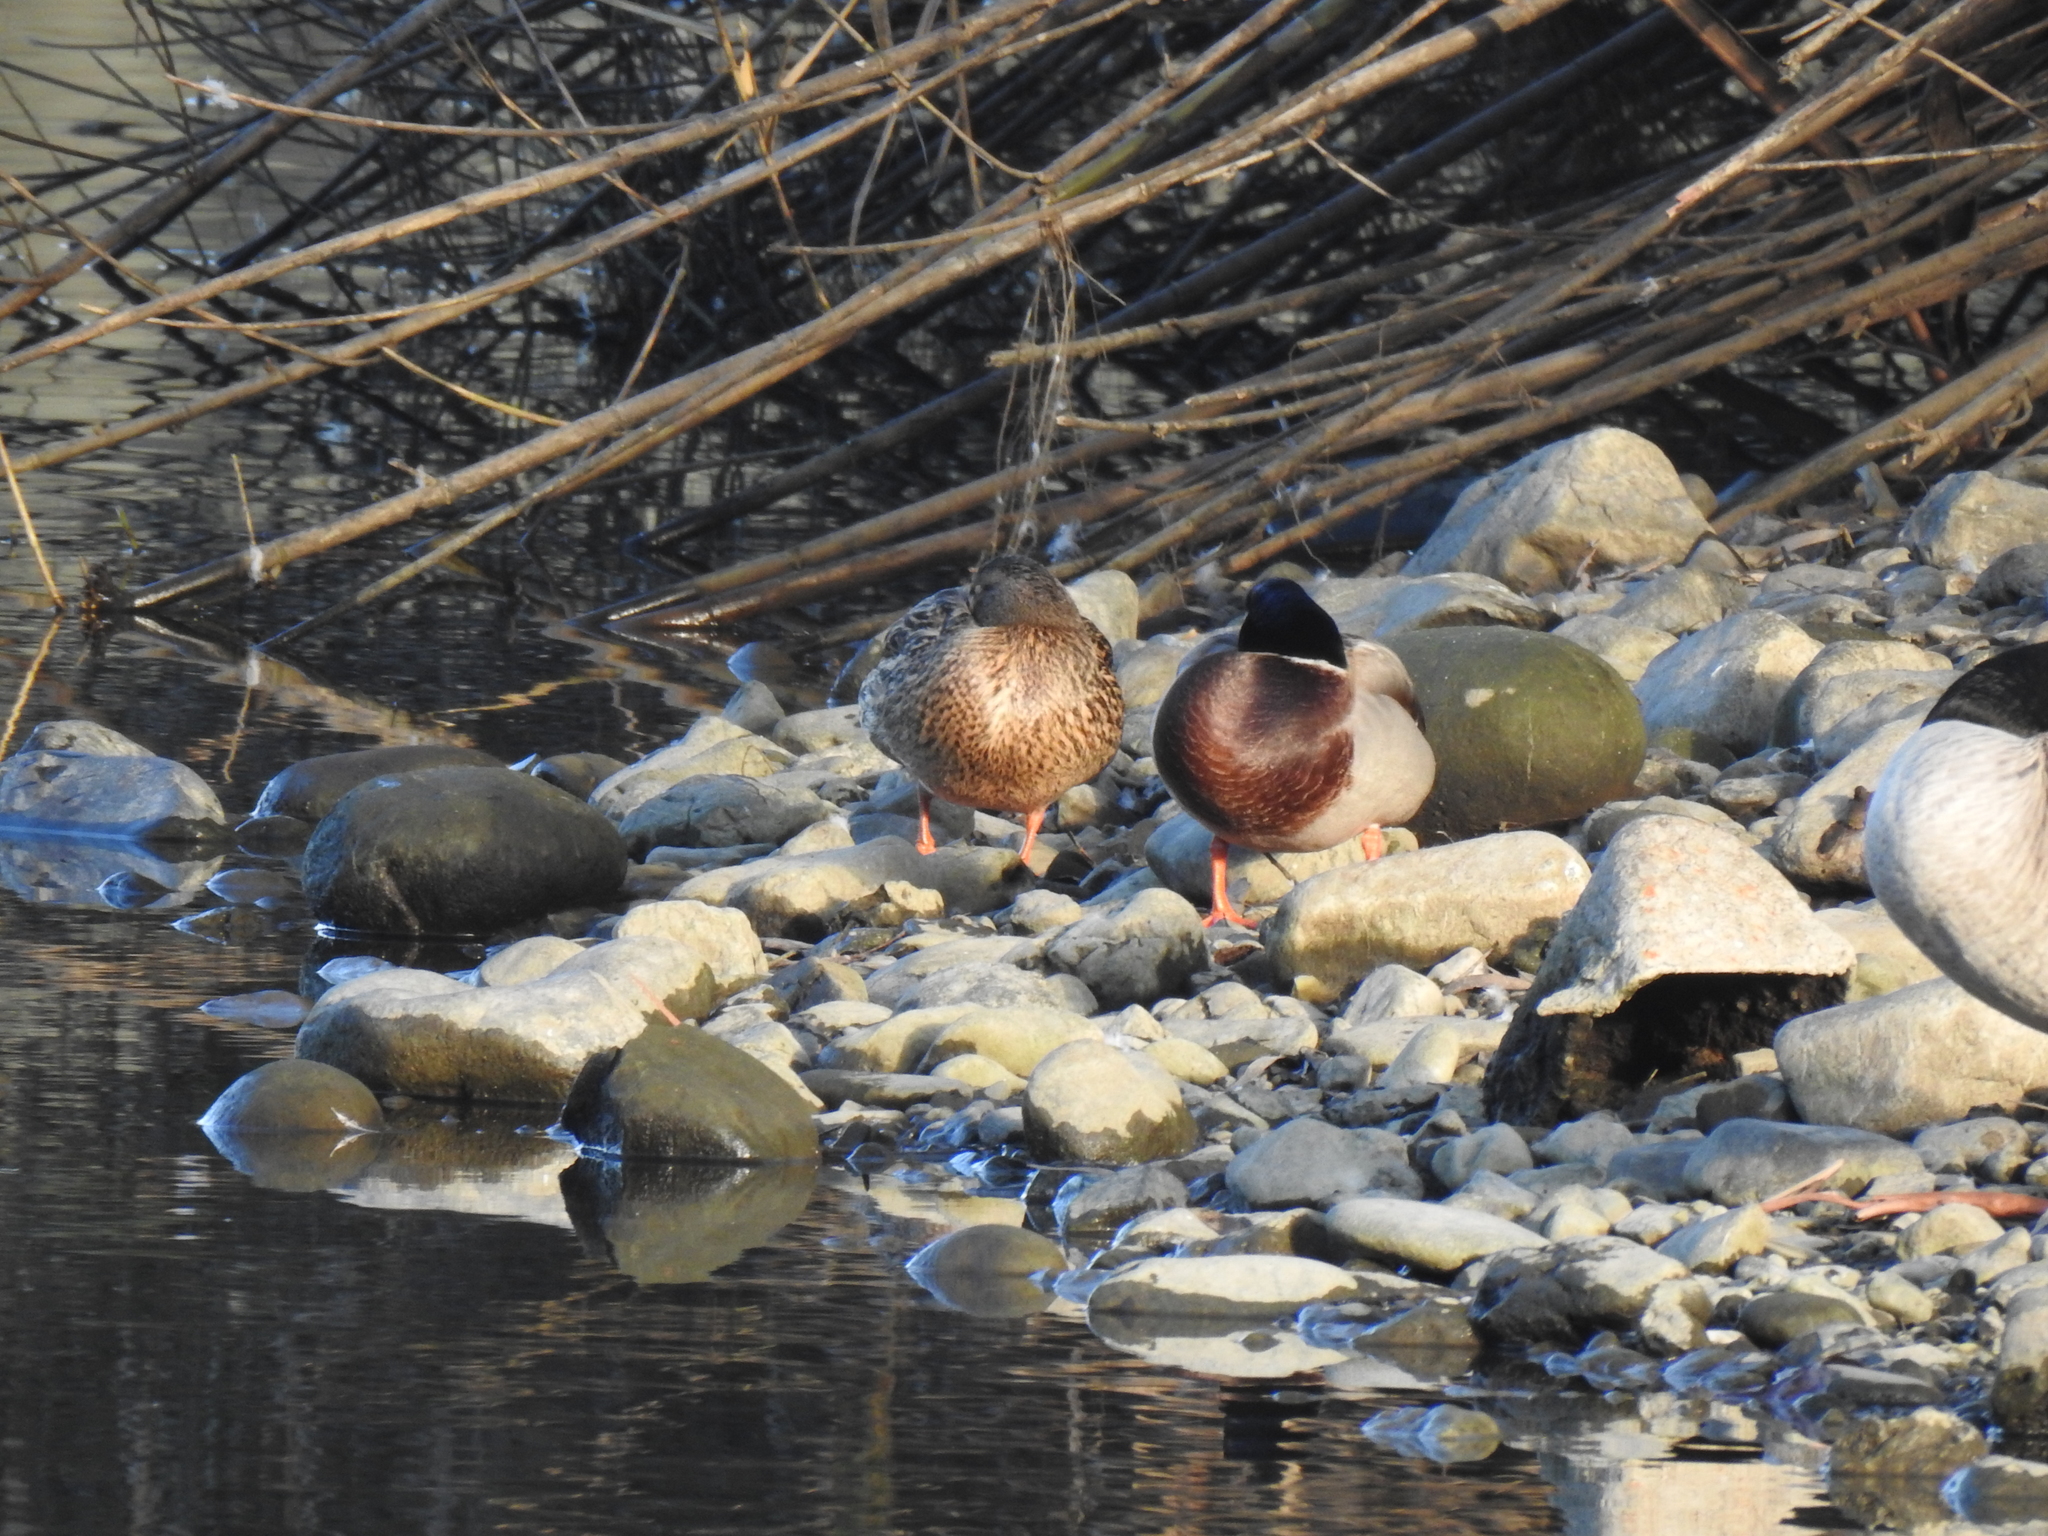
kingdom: Animalia
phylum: Chordata
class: Aves
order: Anseriformes
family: Anatidae
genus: Anas
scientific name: Anas platyrhynchos
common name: Mallard
